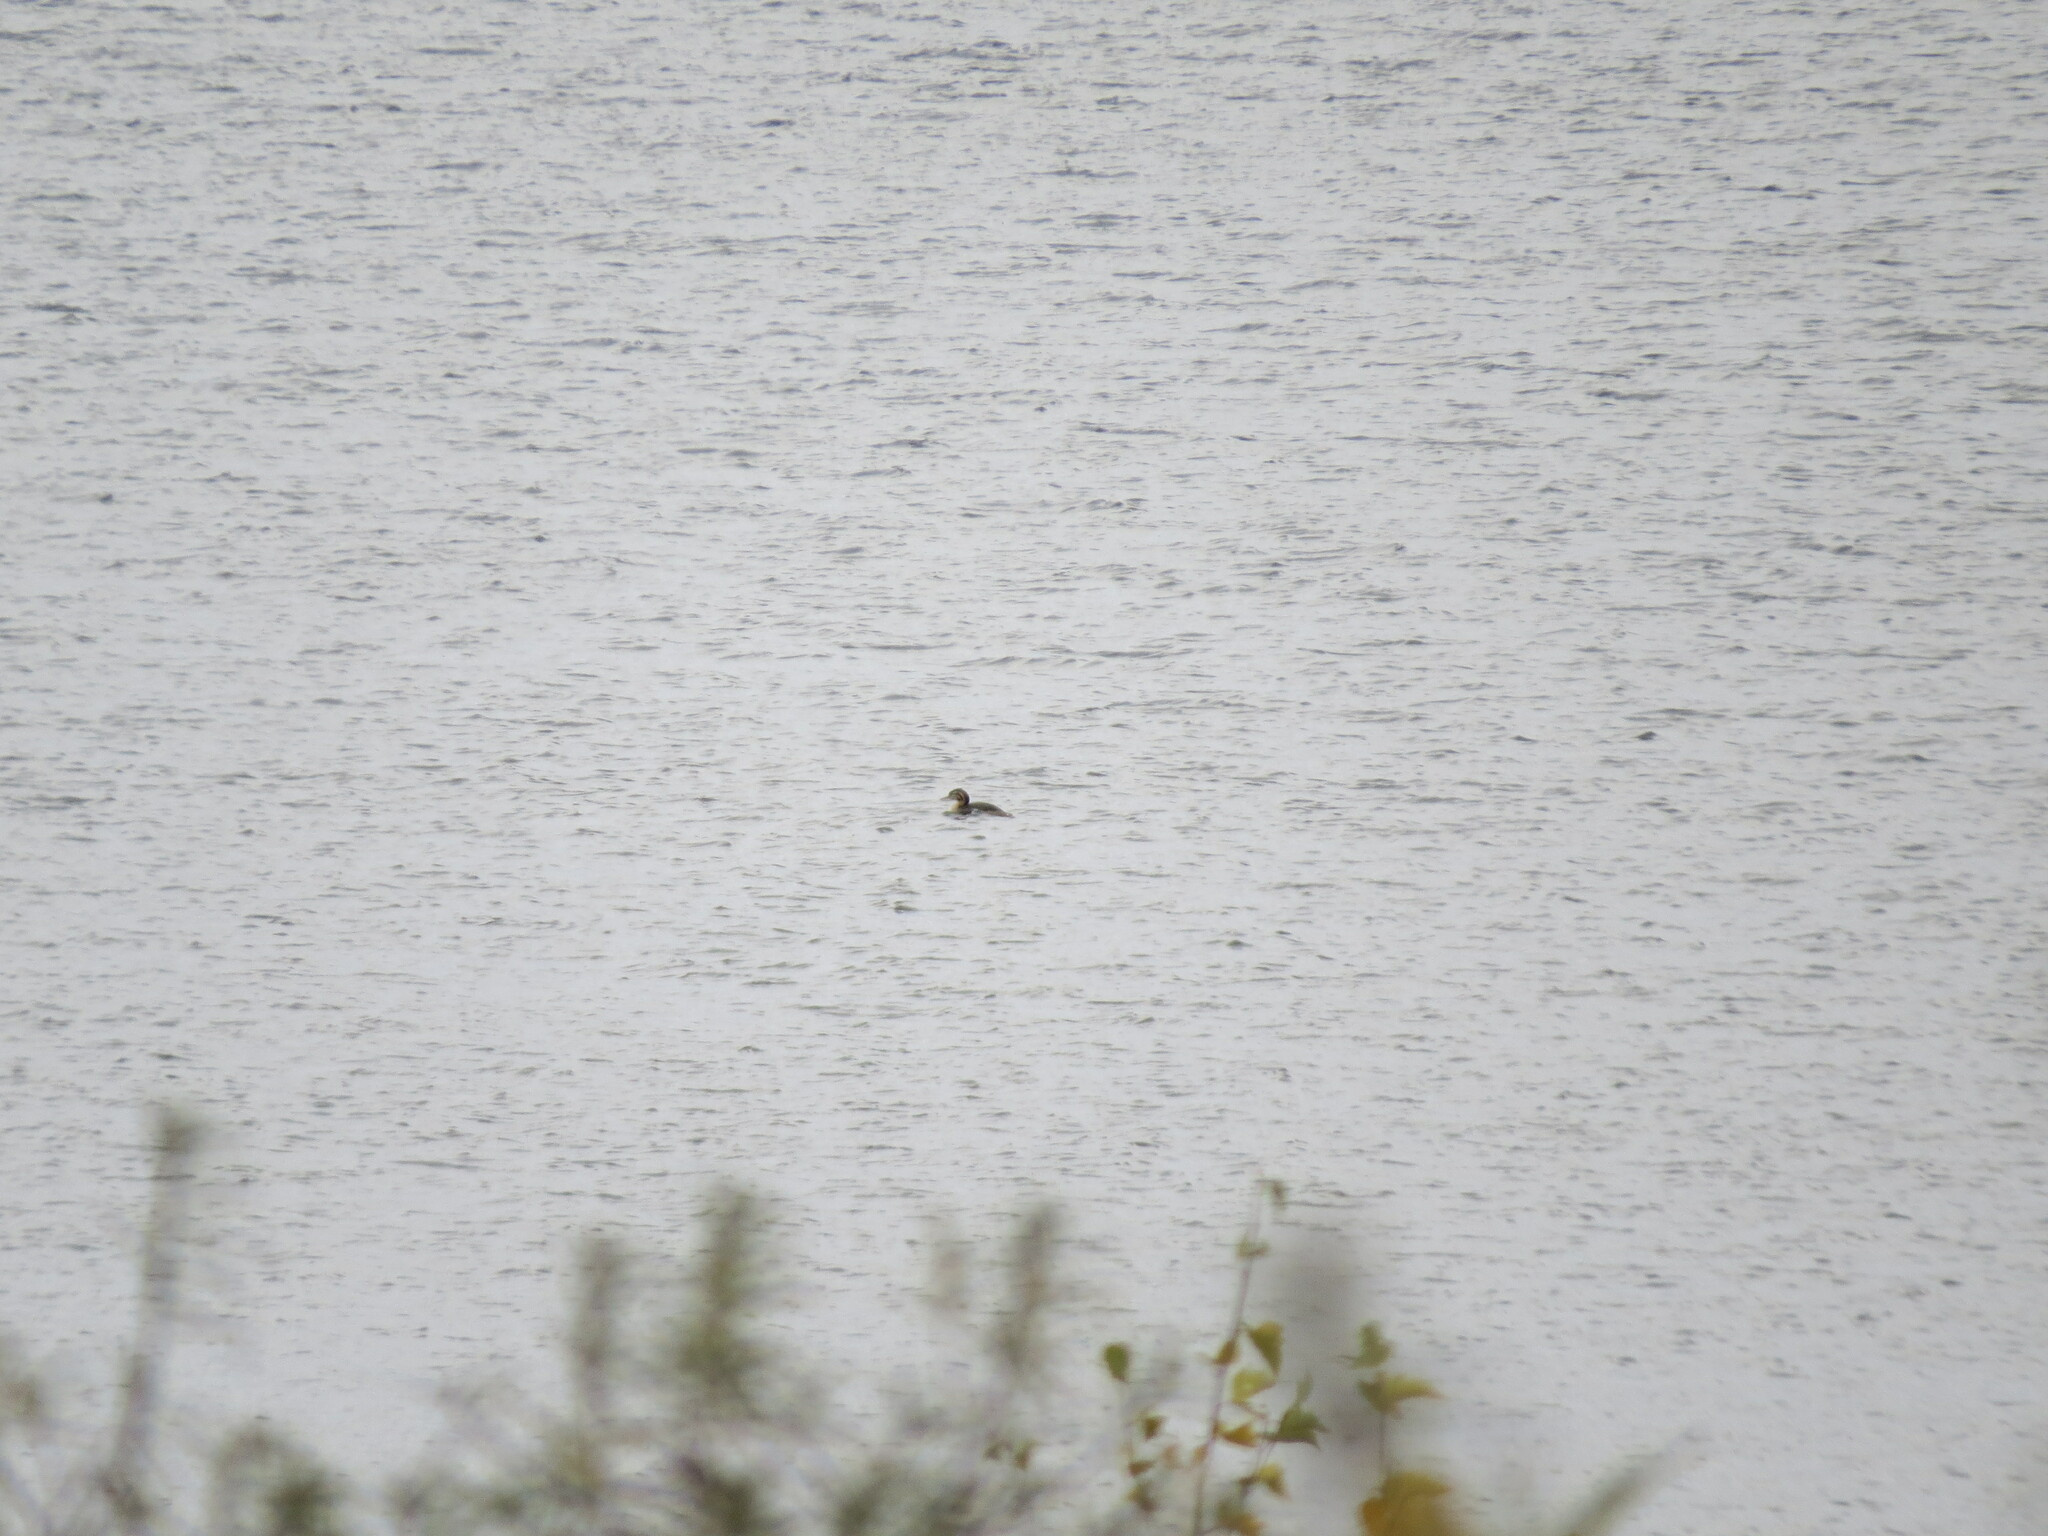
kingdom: Animalia
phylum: Chordata
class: Aves
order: Podicipediformes
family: Podicipedidae
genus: Podiceps
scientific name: Podiceps cristatus
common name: Great crested grebe
